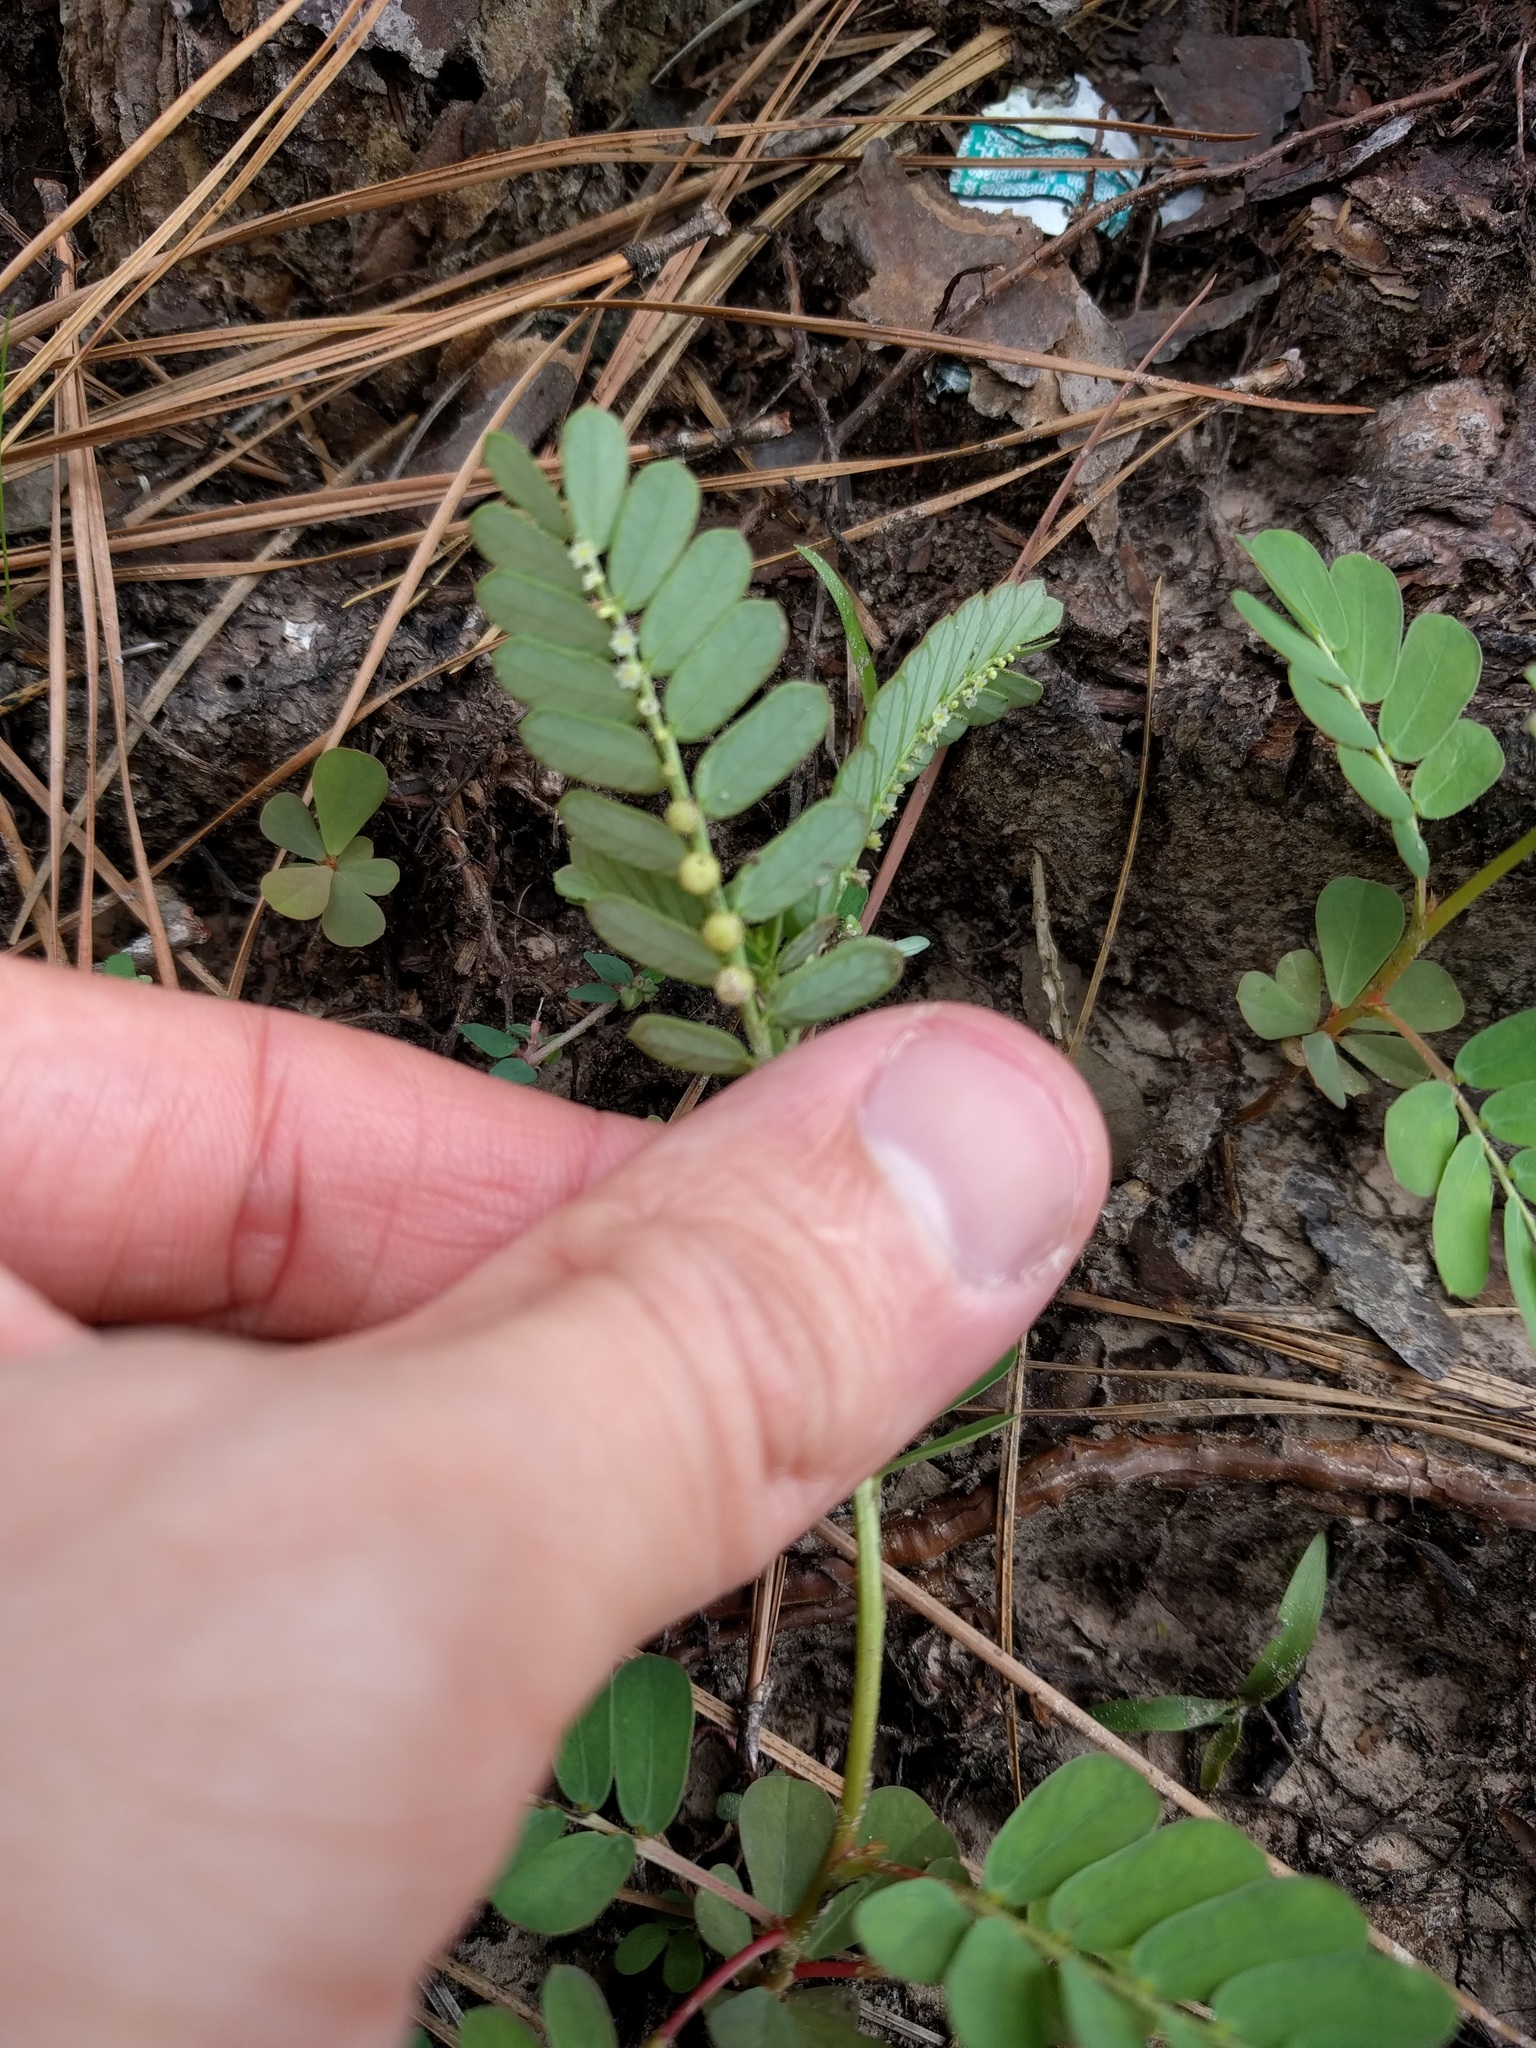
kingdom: Plantae
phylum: Tracheophyta
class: Magnoliopsida
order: Malpighiales
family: Phyllanthaceae
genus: Phyllanthus
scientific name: Phyllanthus urinaria
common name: Chamber bitter
